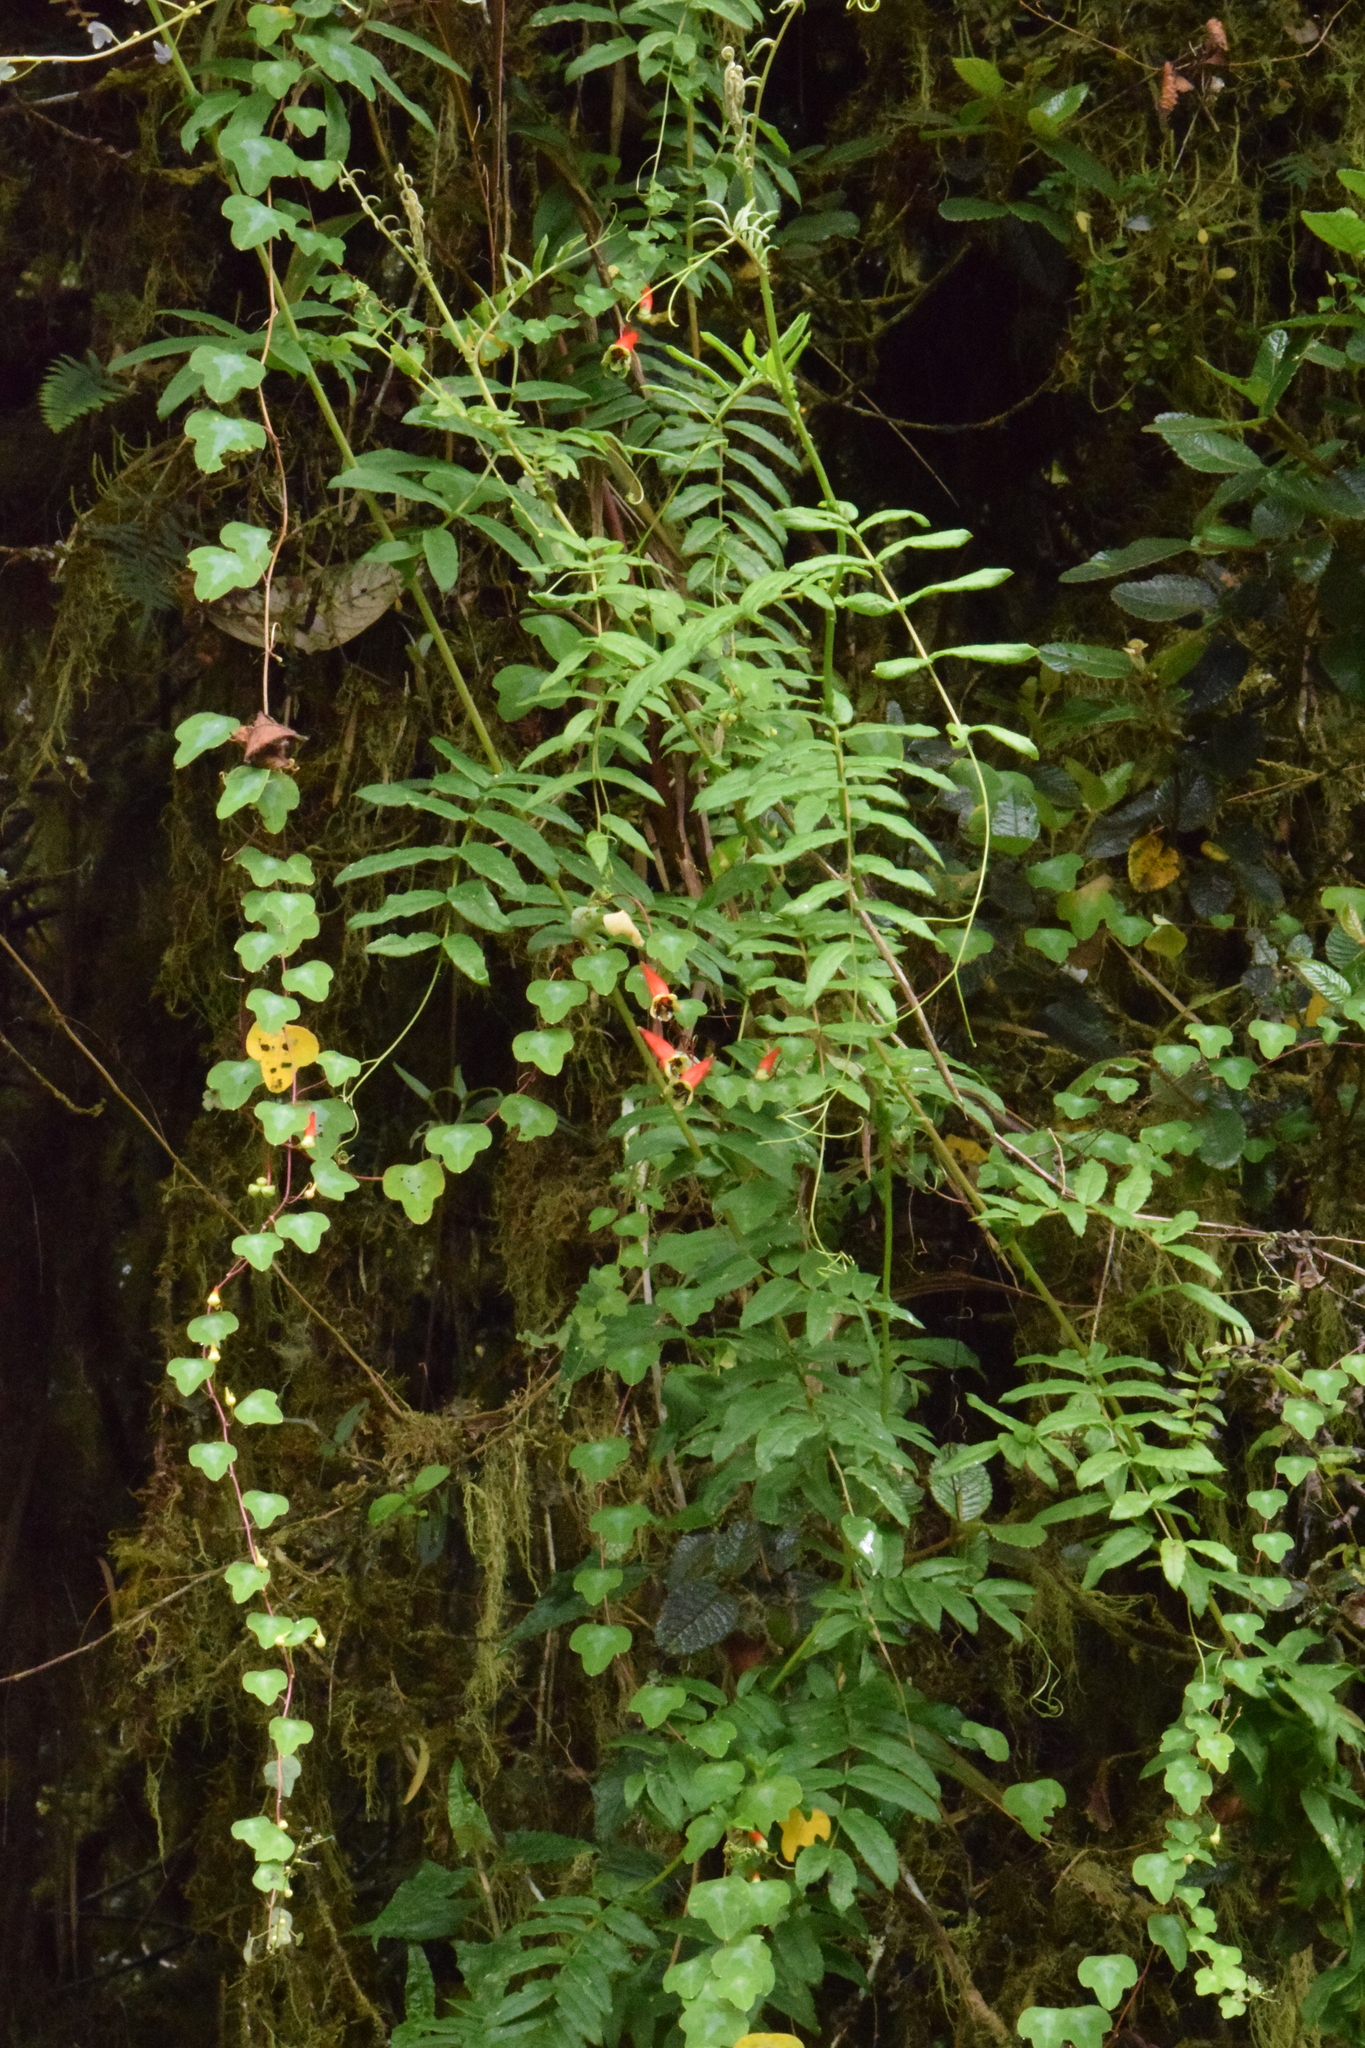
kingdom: Plantae
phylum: Tracheophyta
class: Magnoliopsida
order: Brassicales
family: Tropaeolaceae
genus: Tropaeolum
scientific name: Tropaeolum trilobum
